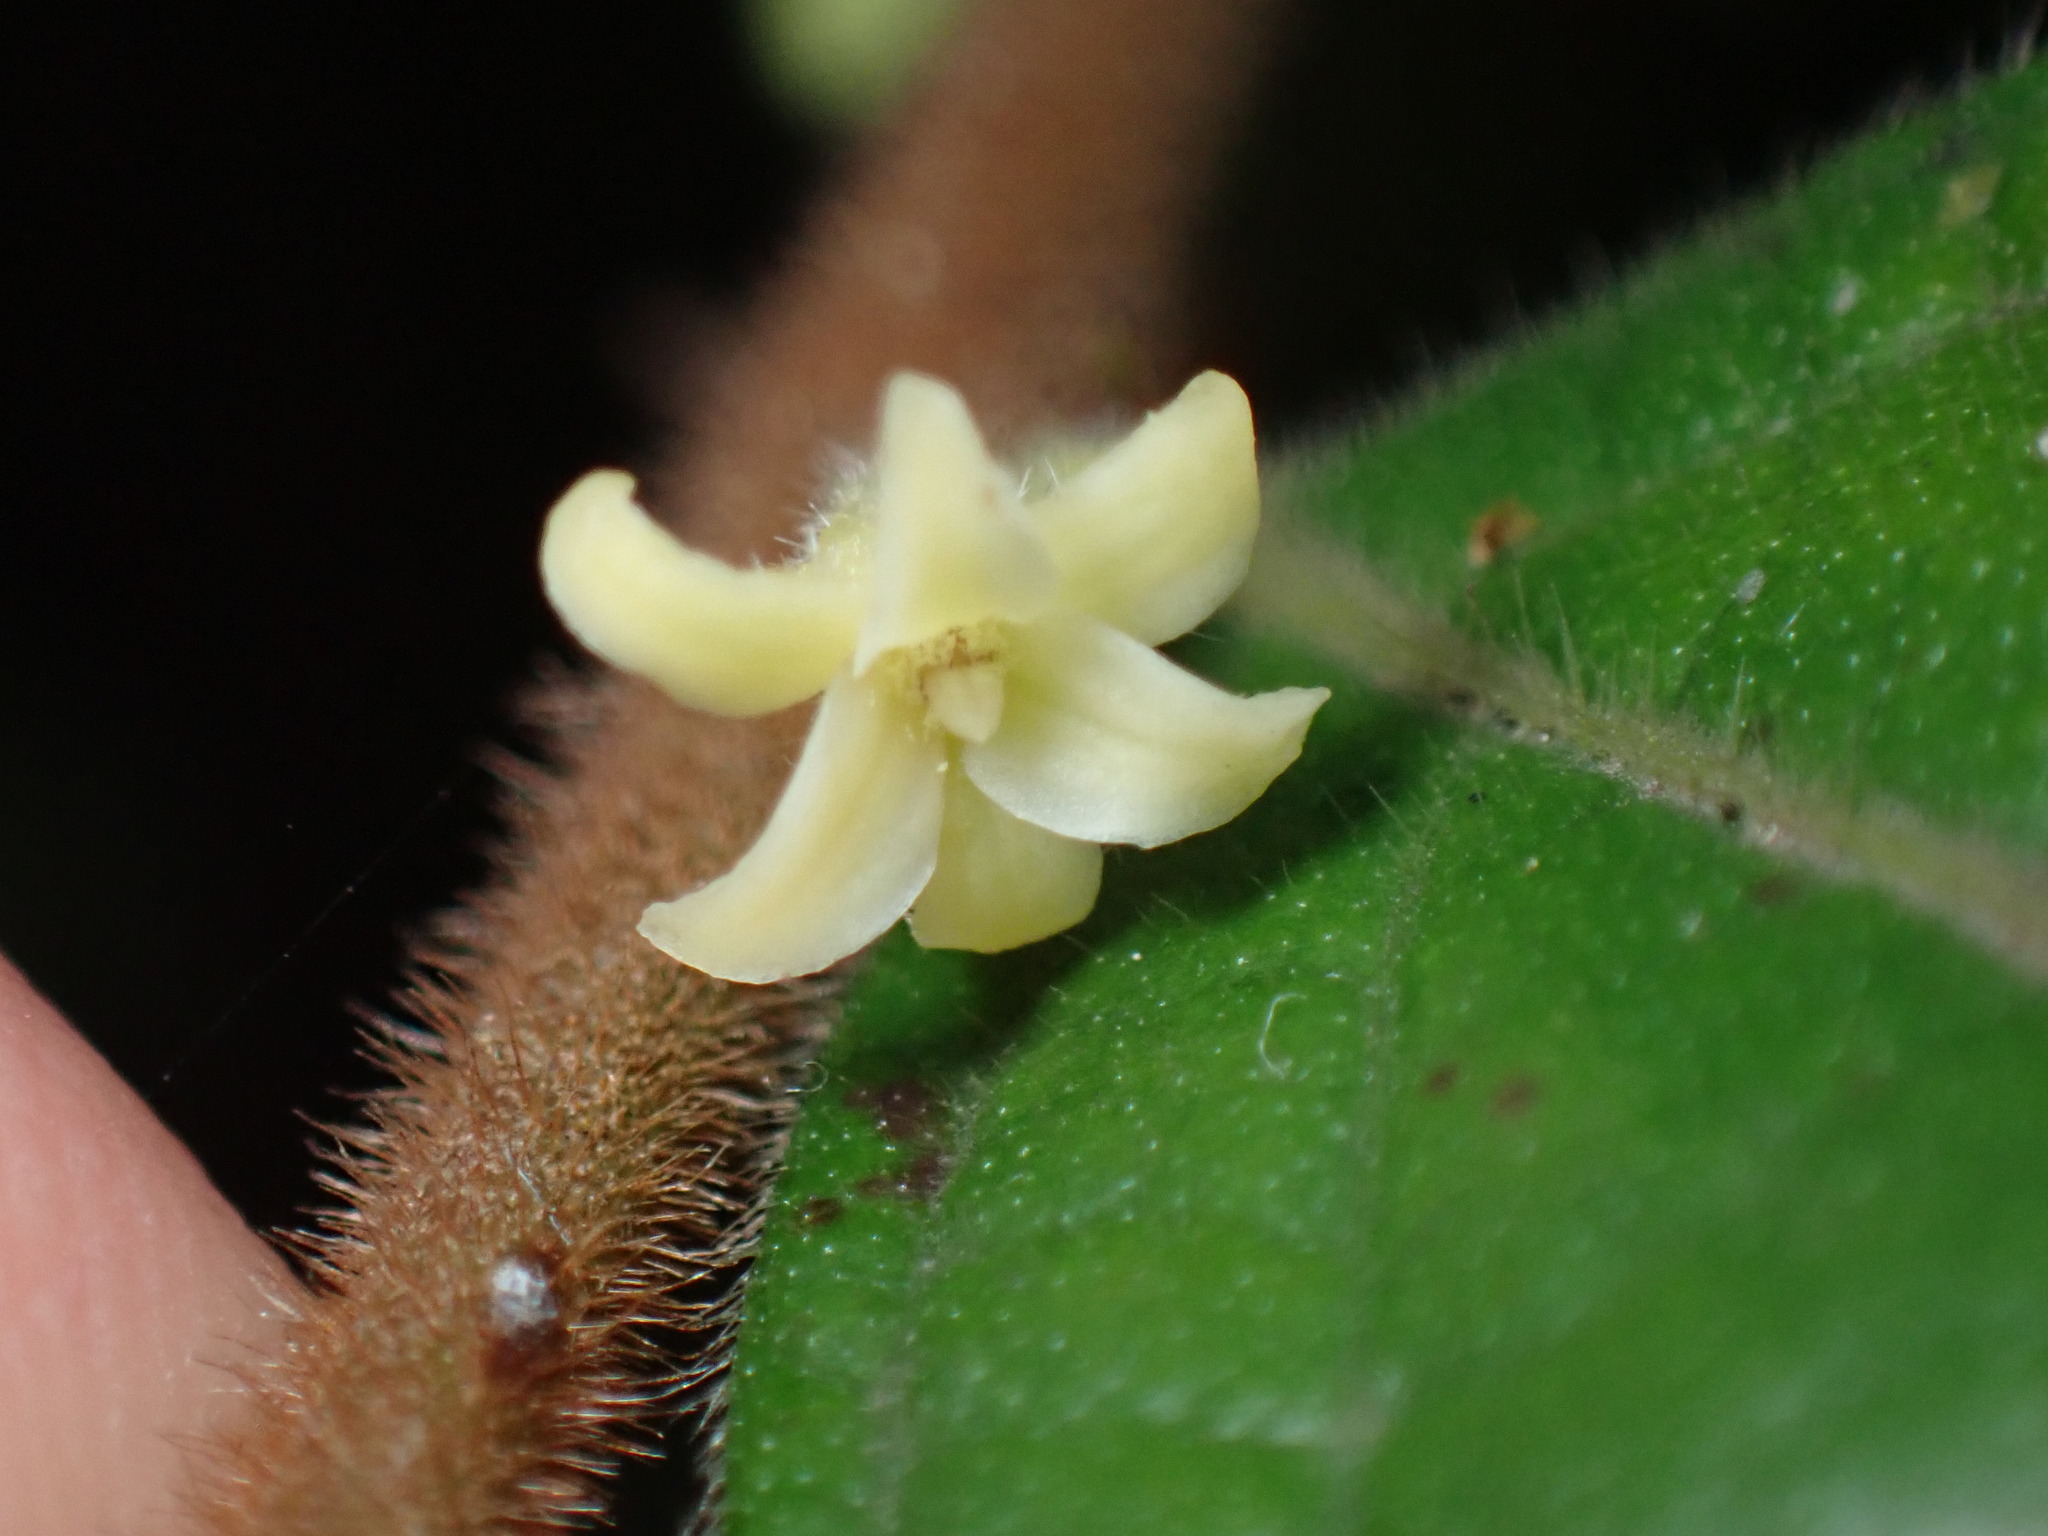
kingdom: Plantae
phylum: Tracheophyta
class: Magnoliopsida
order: Malpighiales
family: Phyllanthaceae
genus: Glochidion
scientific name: Glochidion eriocarpum
